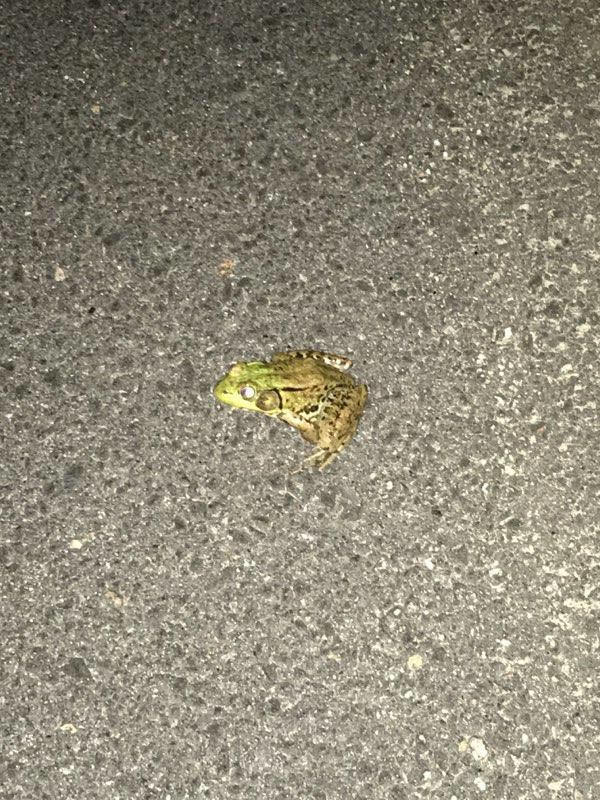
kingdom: Animalia
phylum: Chordata
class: Amphibia
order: Anura
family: Ranidae
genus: Lithobates
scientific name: Lithobates clamitans
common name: Green frog
